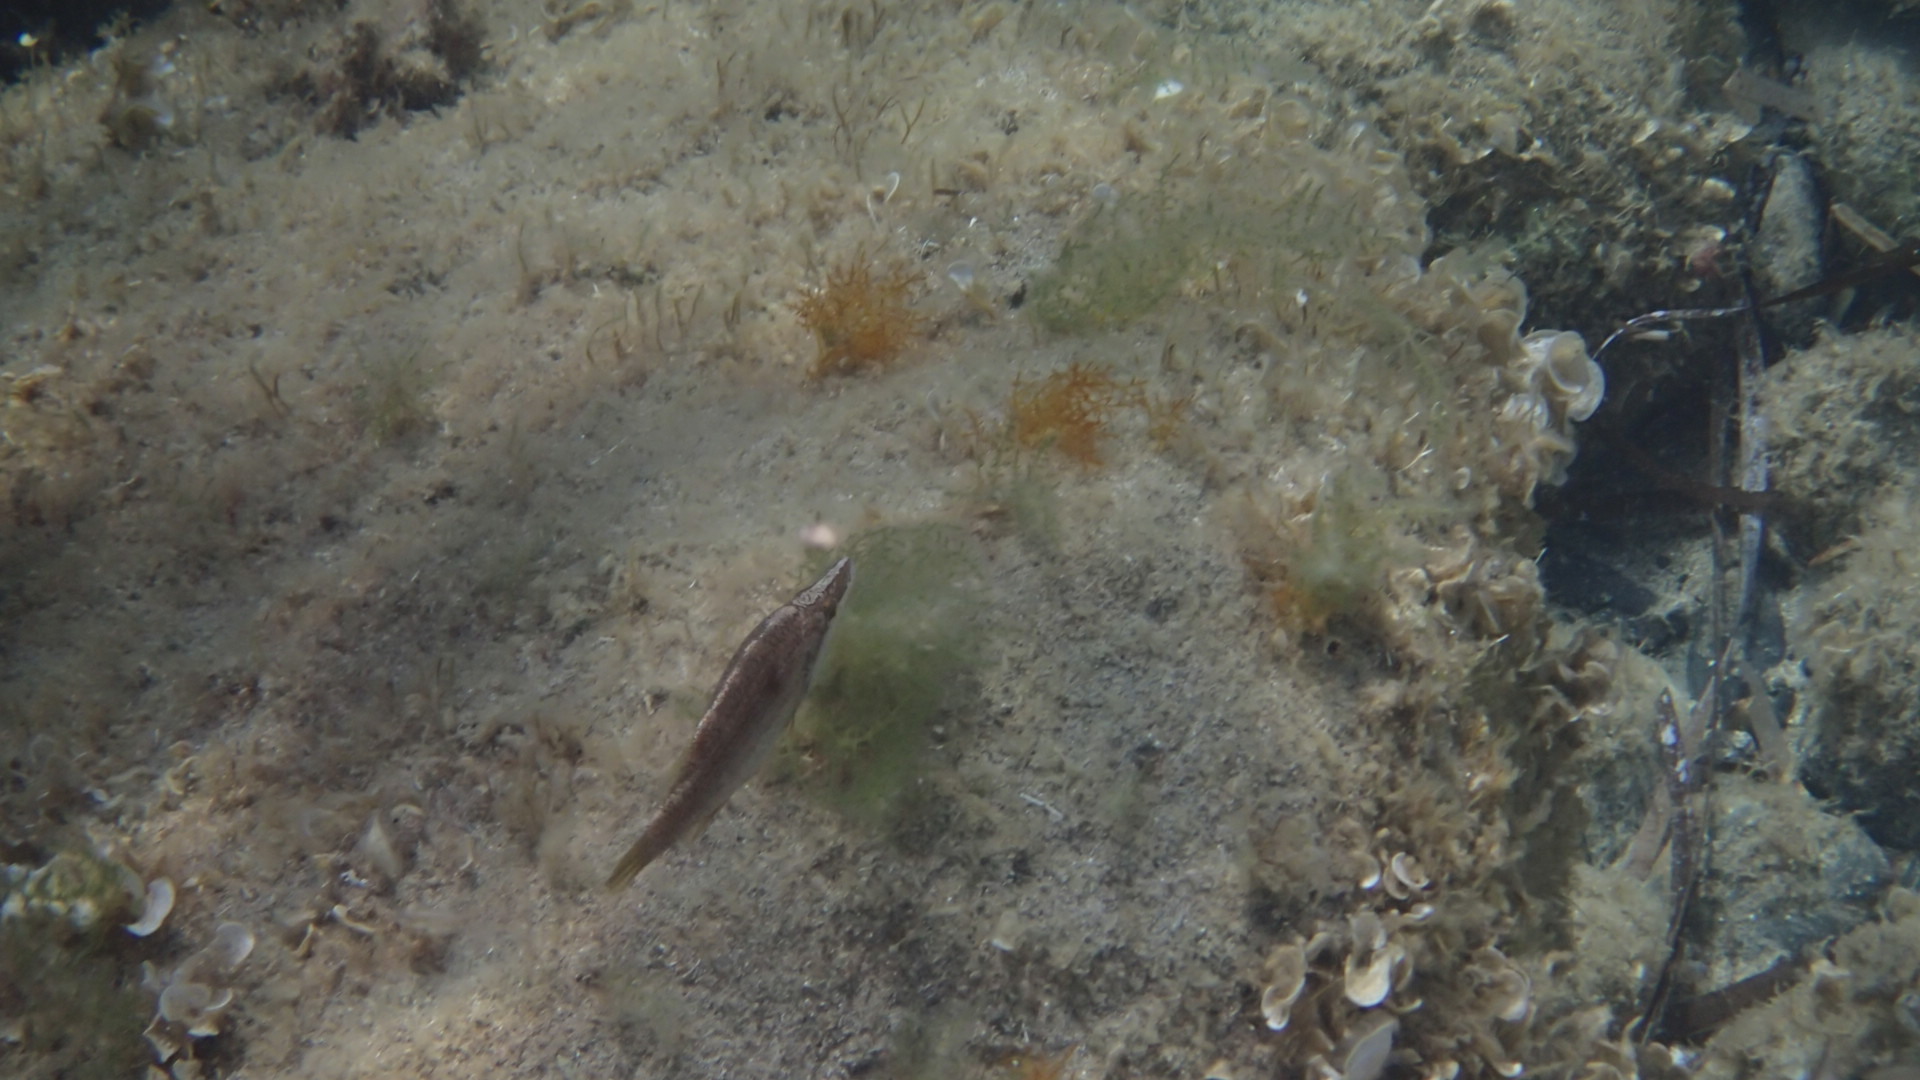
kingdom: Animalia
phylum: Chordata
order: Perciformes
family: Labridae
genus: Symphodus
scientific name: Symphodus rostratus
